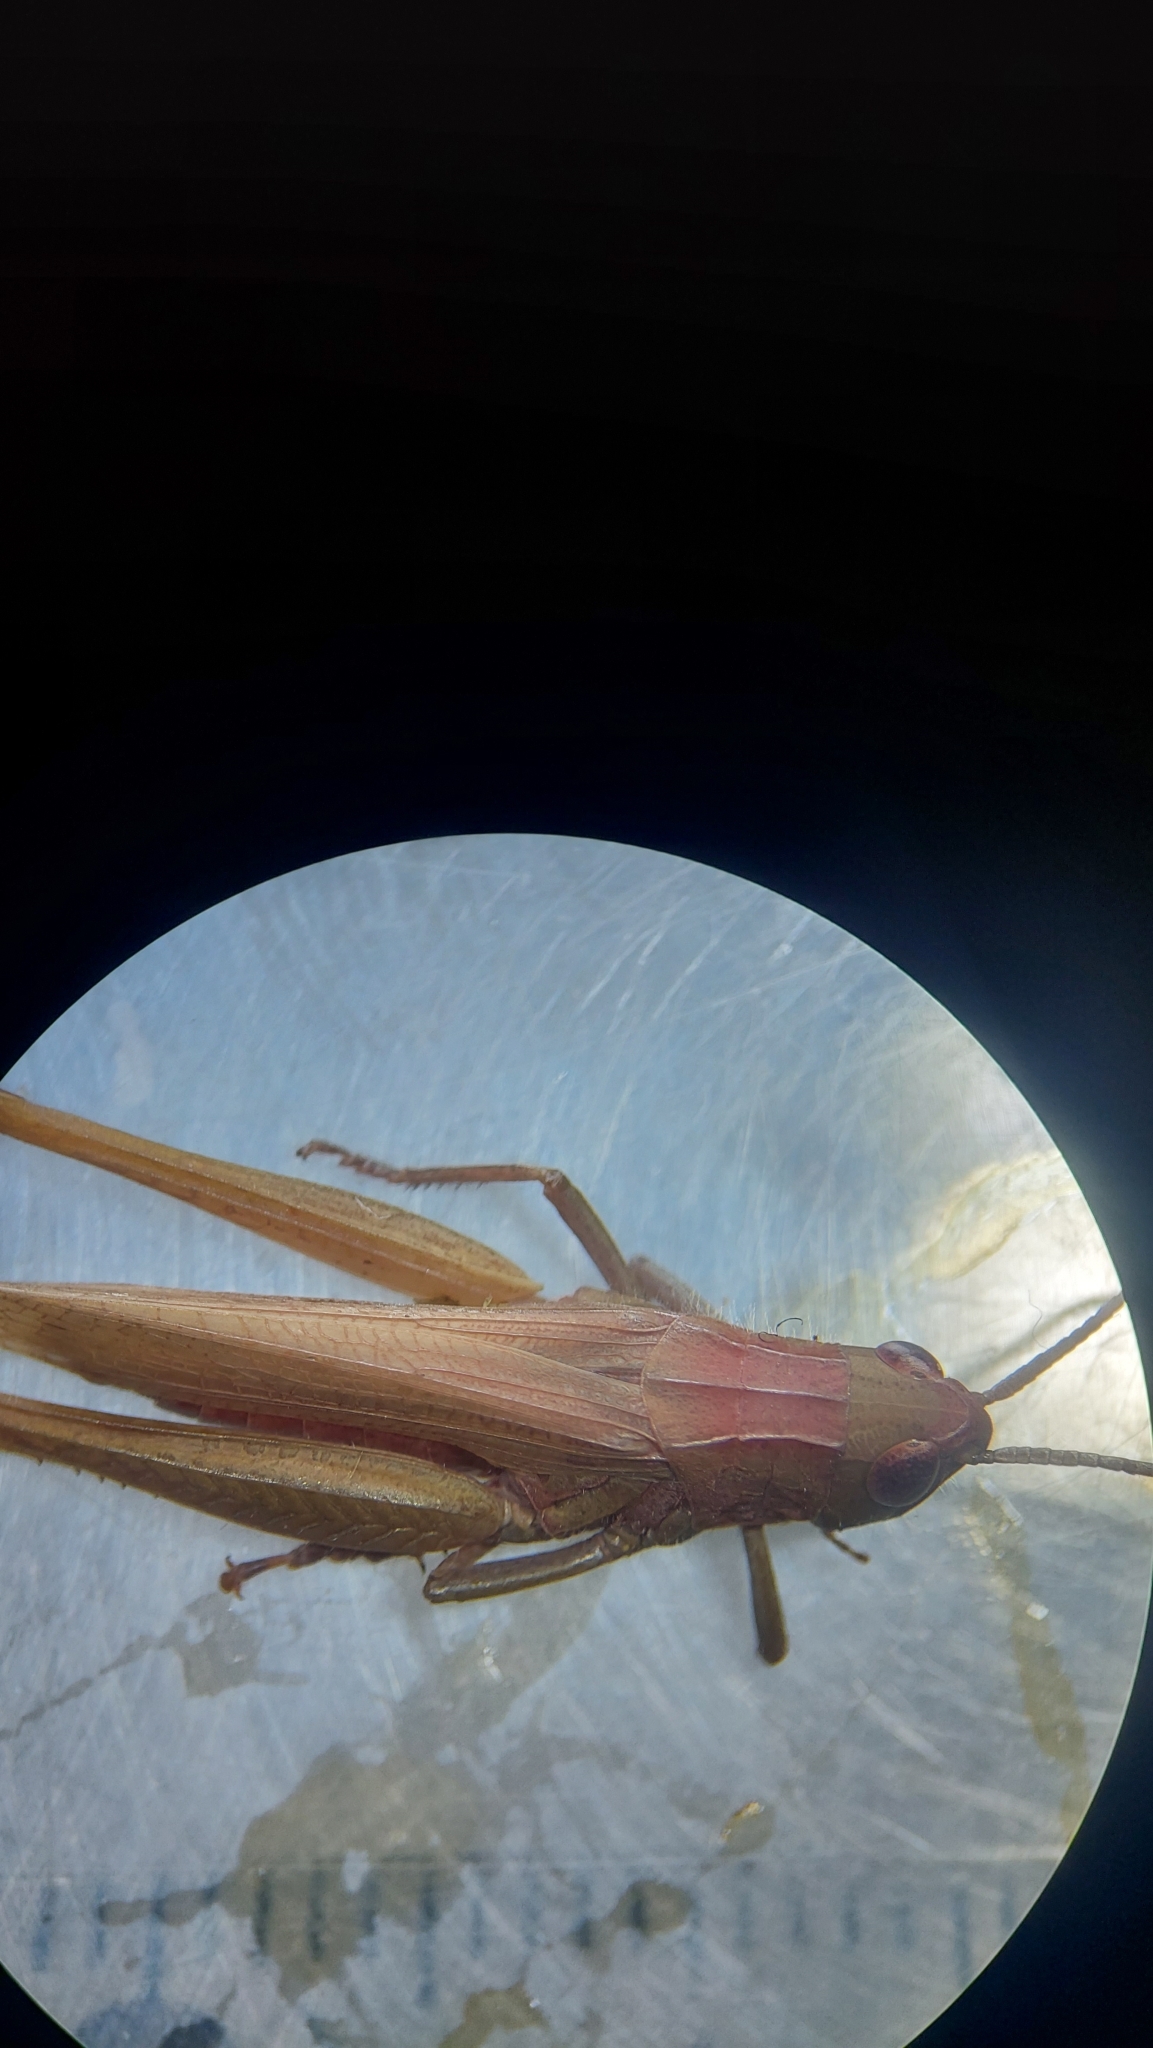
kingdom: Animalia
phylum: Arthropoda
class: Insecta
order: Orthoptera
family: Acrididae
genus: Chorthippus
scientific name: Chorthippus dorsatus
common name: Steppe grasshopper
